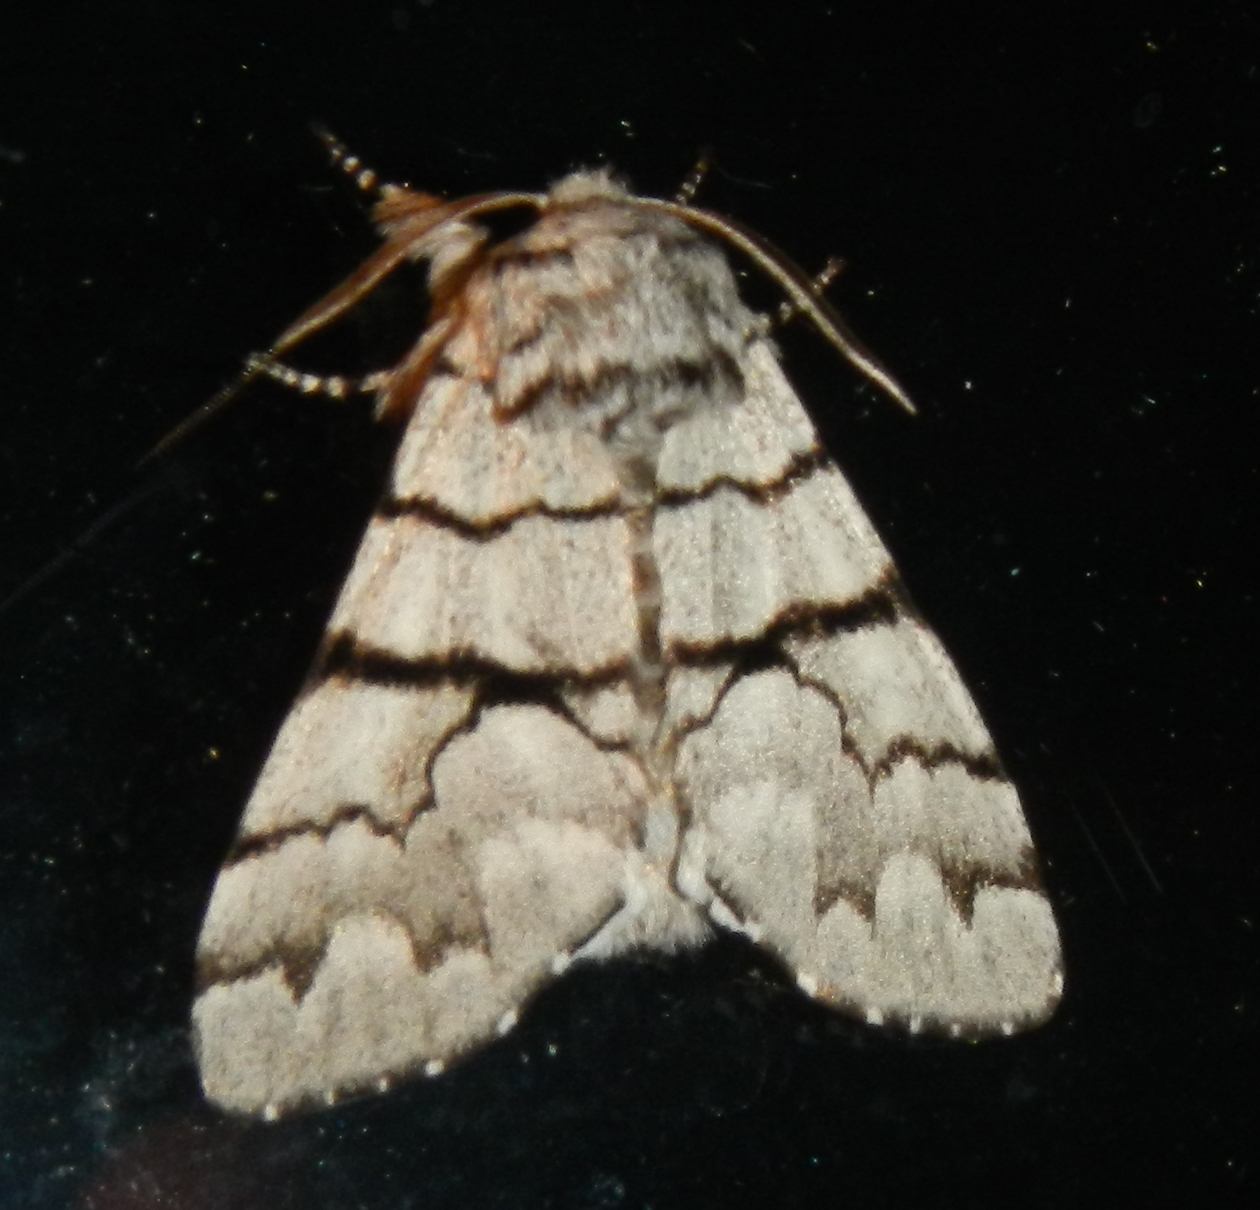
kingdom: Animalia
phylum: Arthropoda
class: Insecta
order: Lepidoptera
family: Noctuidae
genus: Panthea
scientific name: Panthea furcilla
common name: Eastern panthea moth
